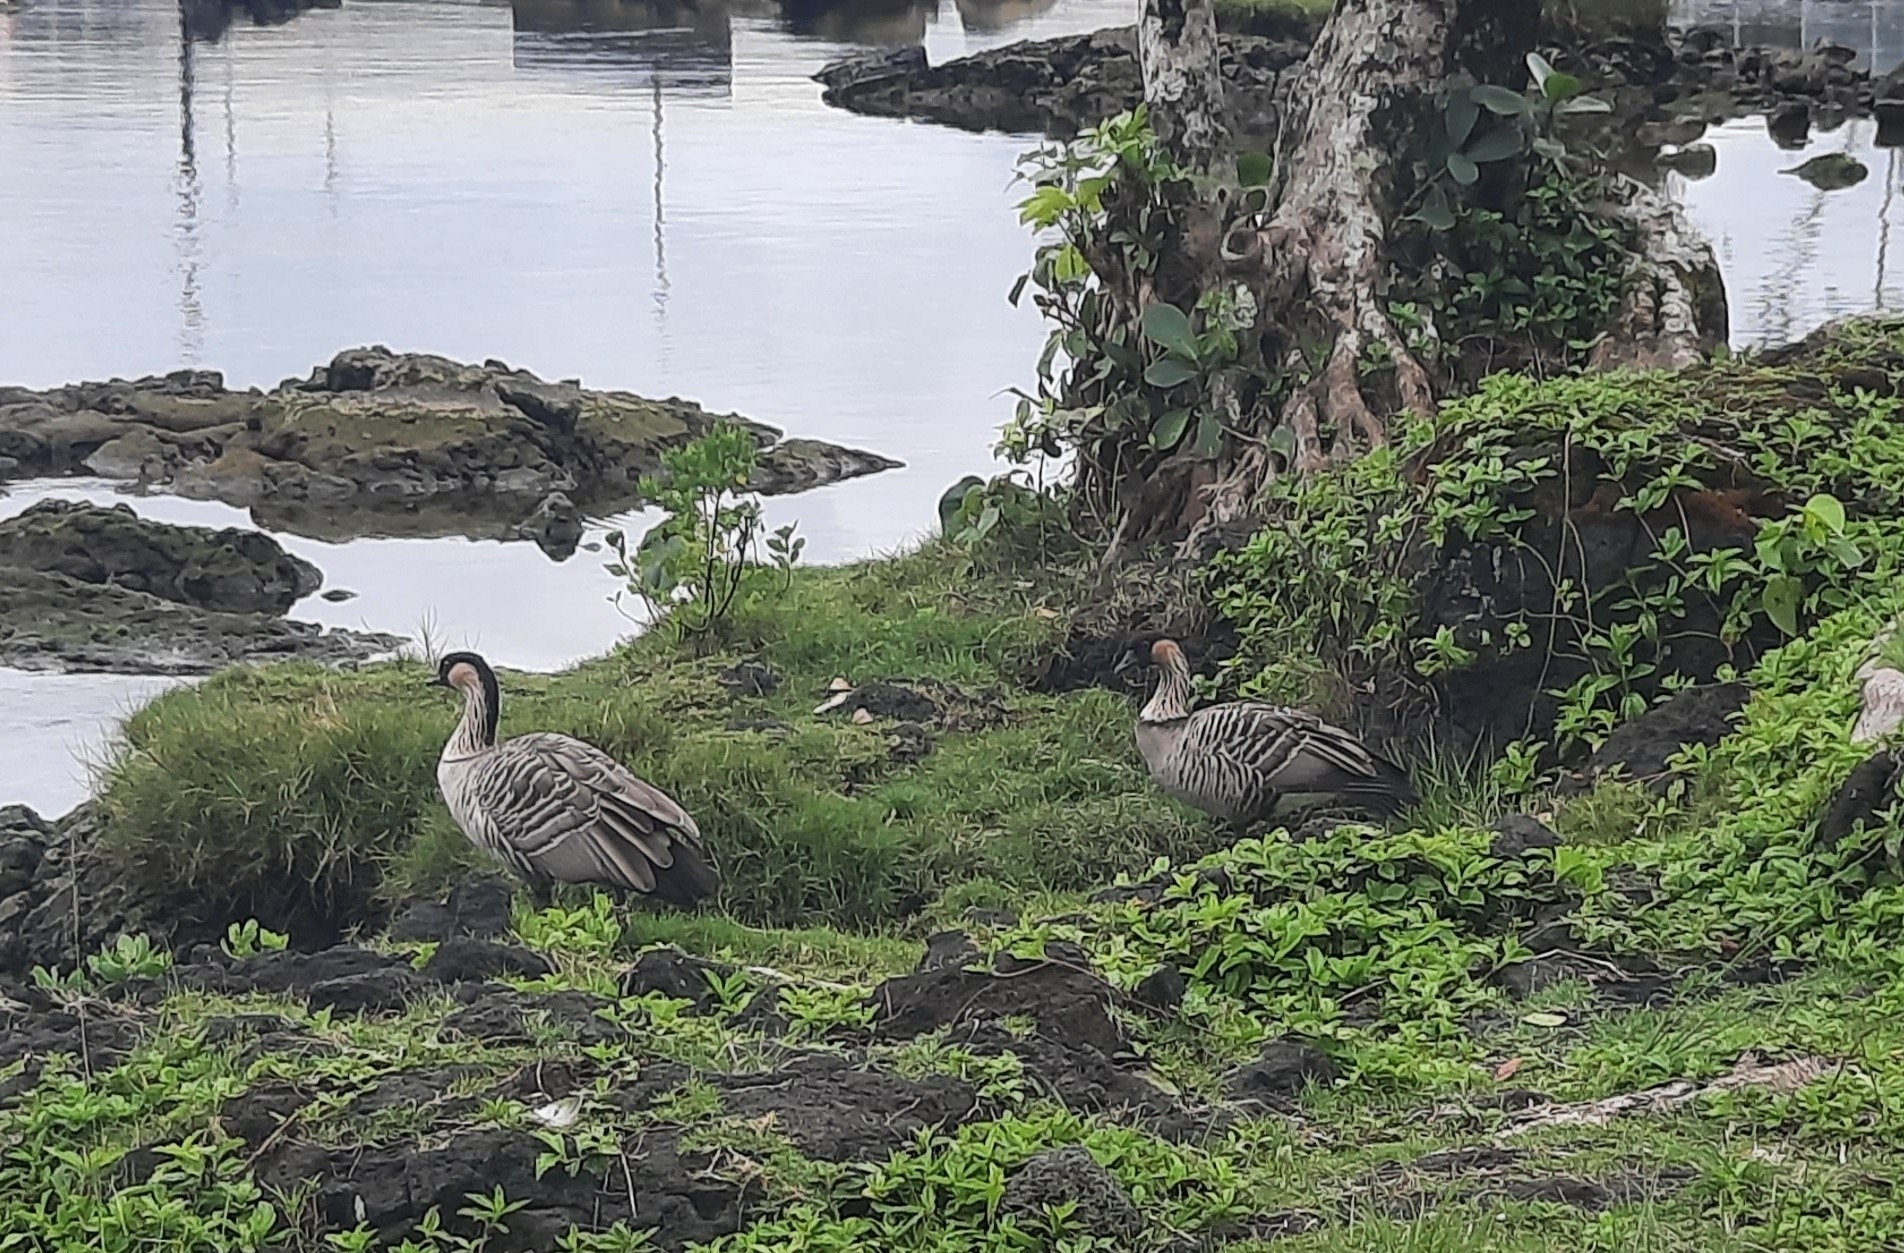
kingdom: Animalia
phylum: Chordata
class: Aves
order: Anseriformes
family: Anatidae
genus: Branta
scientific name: Branta sandvicensis
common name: Nene
